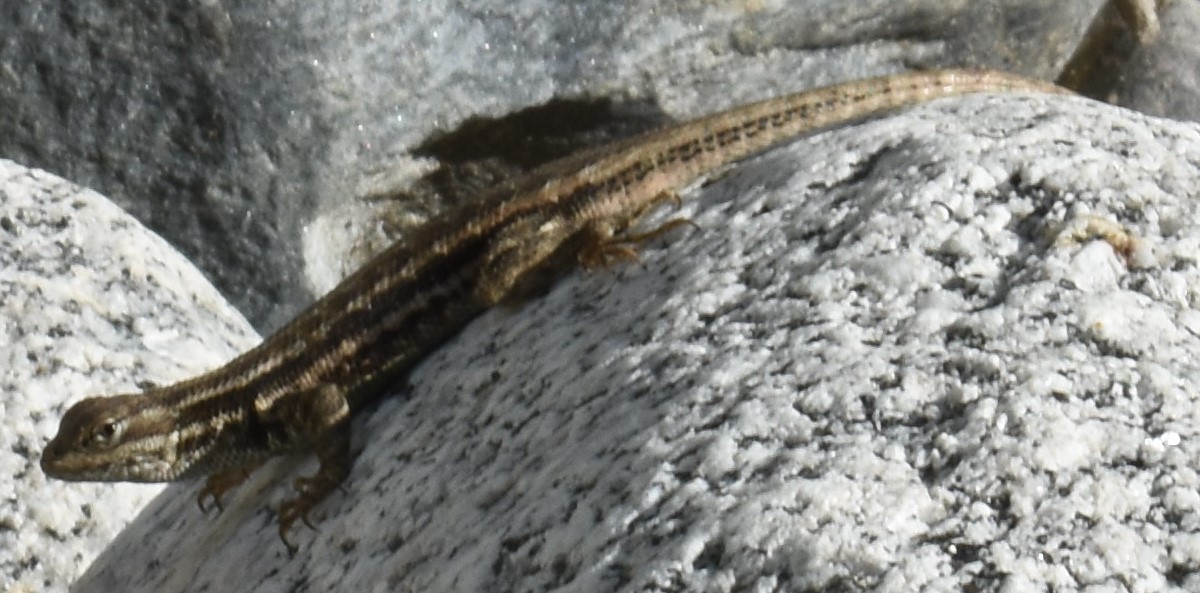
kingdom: Animalia
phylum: Chordata
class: Squamata
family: Phrynosomatidae
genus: Sceloporus
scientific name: Sceloporus graciosus
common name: Sagebrush lizard
